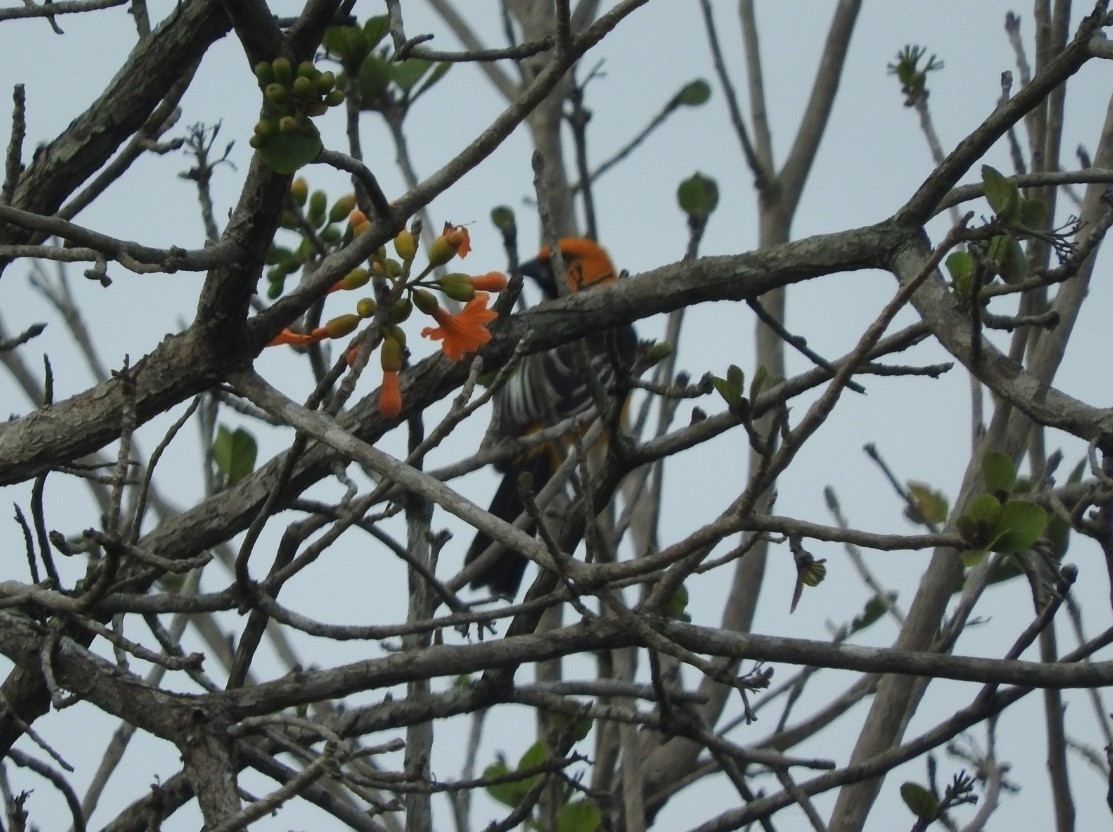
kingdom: Animalia
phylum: Chordata
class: Aves
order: Passeriformes
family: Icteridae
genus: Icterus
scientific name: Icterus gularis
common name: Altamira oriole
